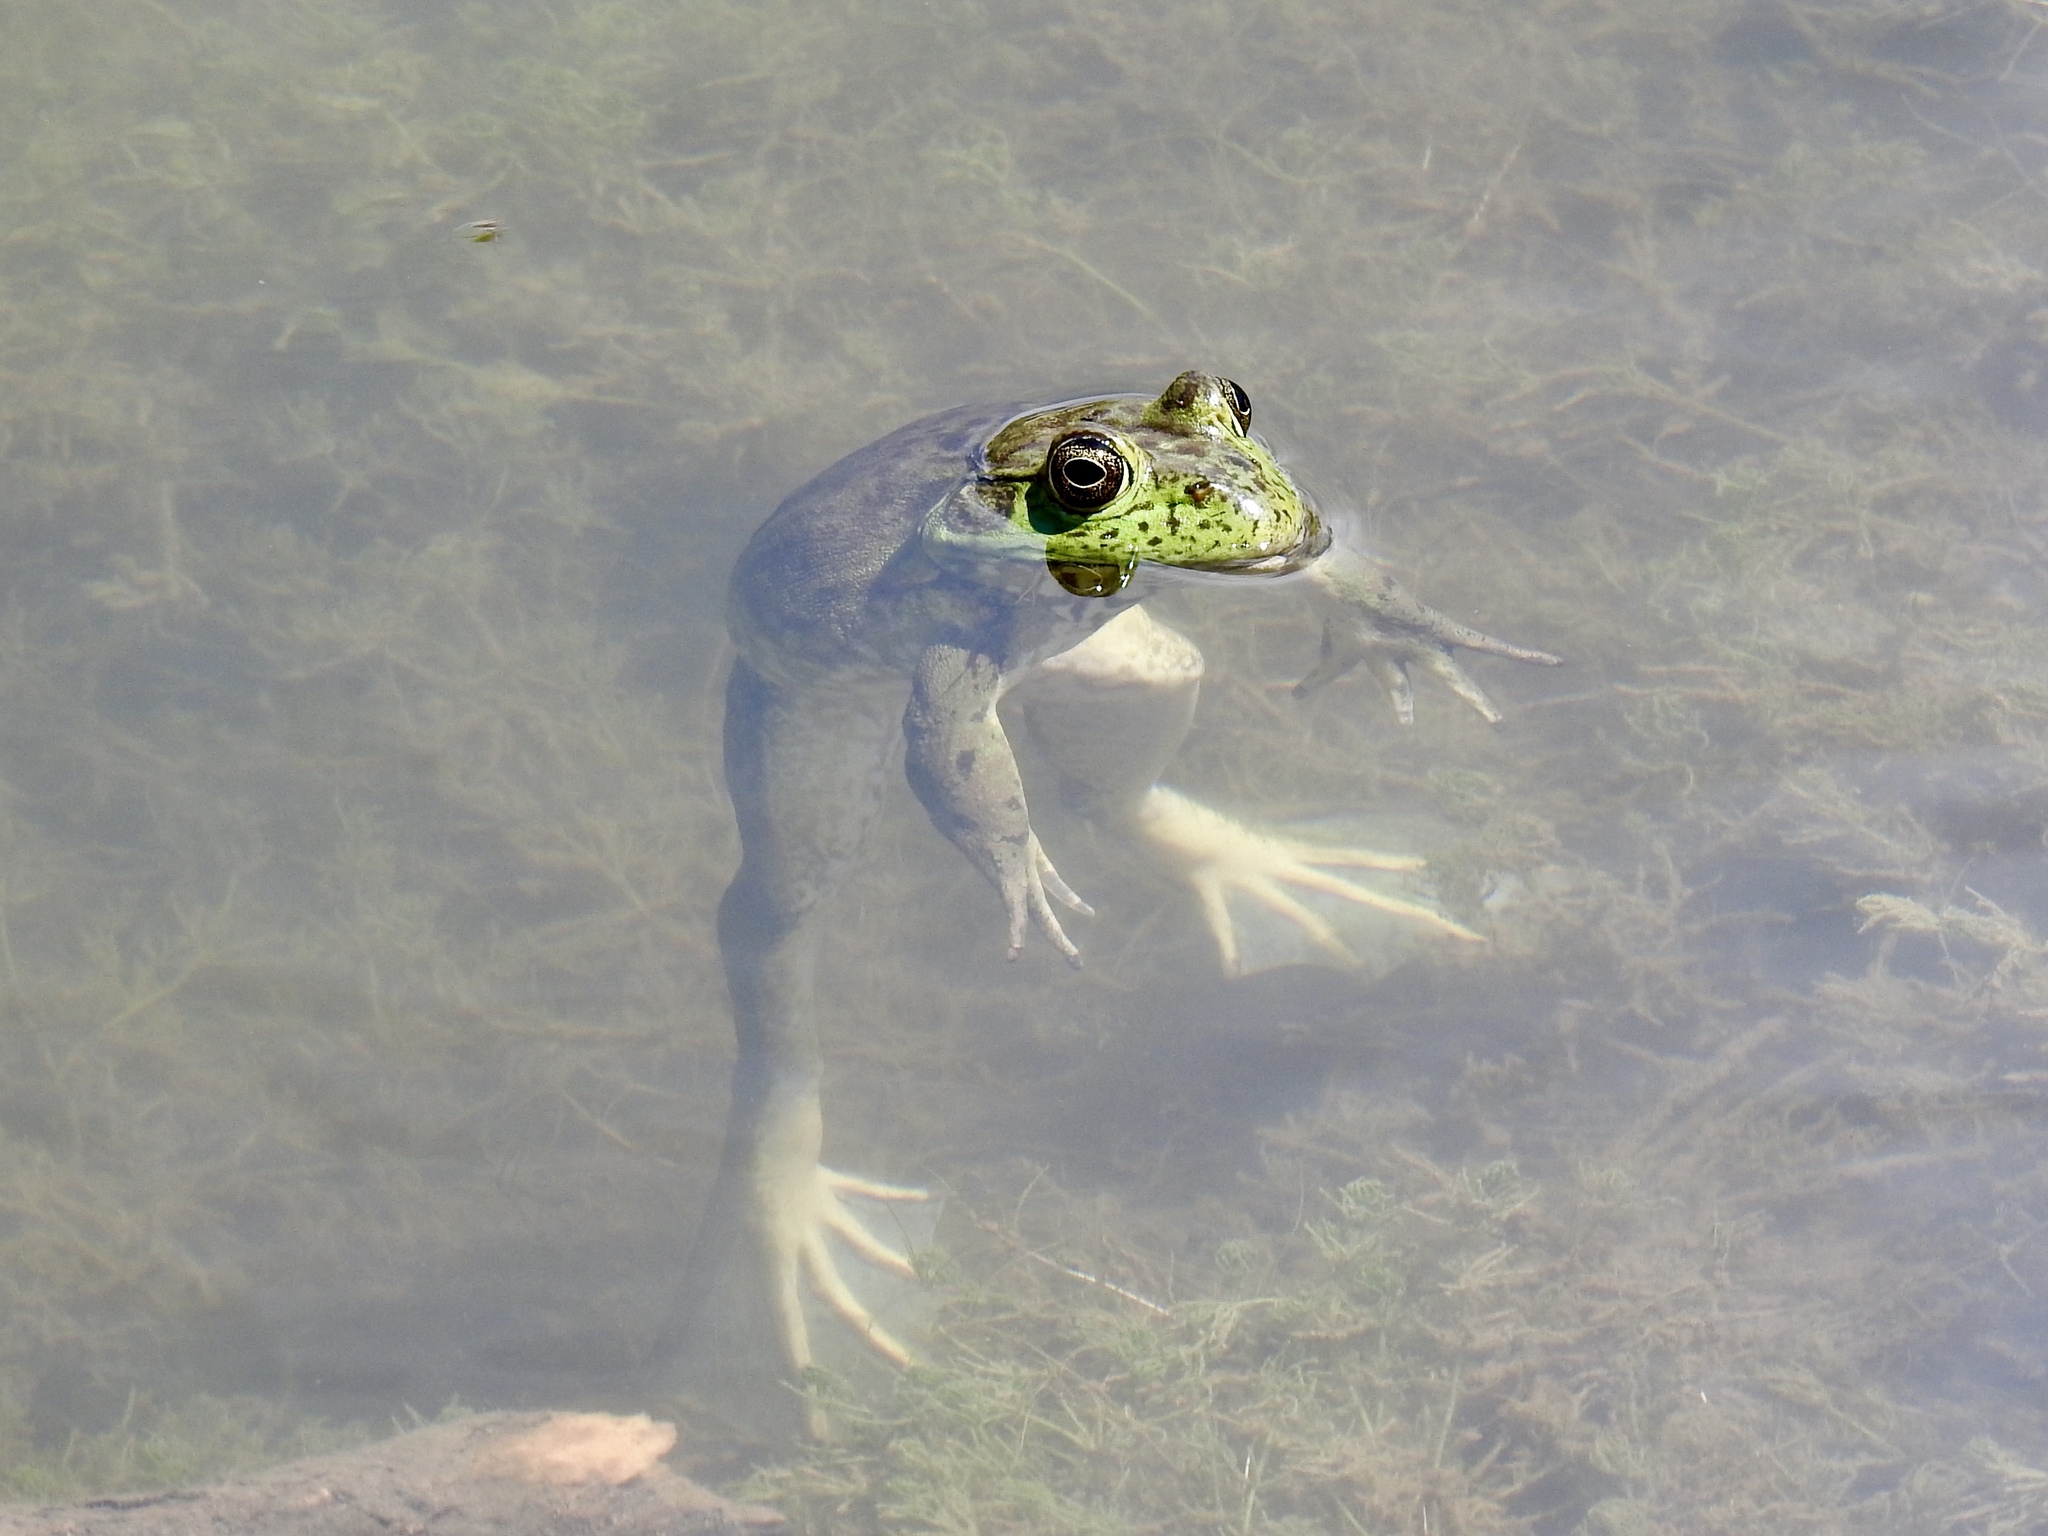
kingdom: Animalia
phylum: Chordata
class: Amphibia
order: Anura
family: Ranidae
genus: Lithobates
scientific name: Lithobates catesbeianus
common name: American bullfrog
